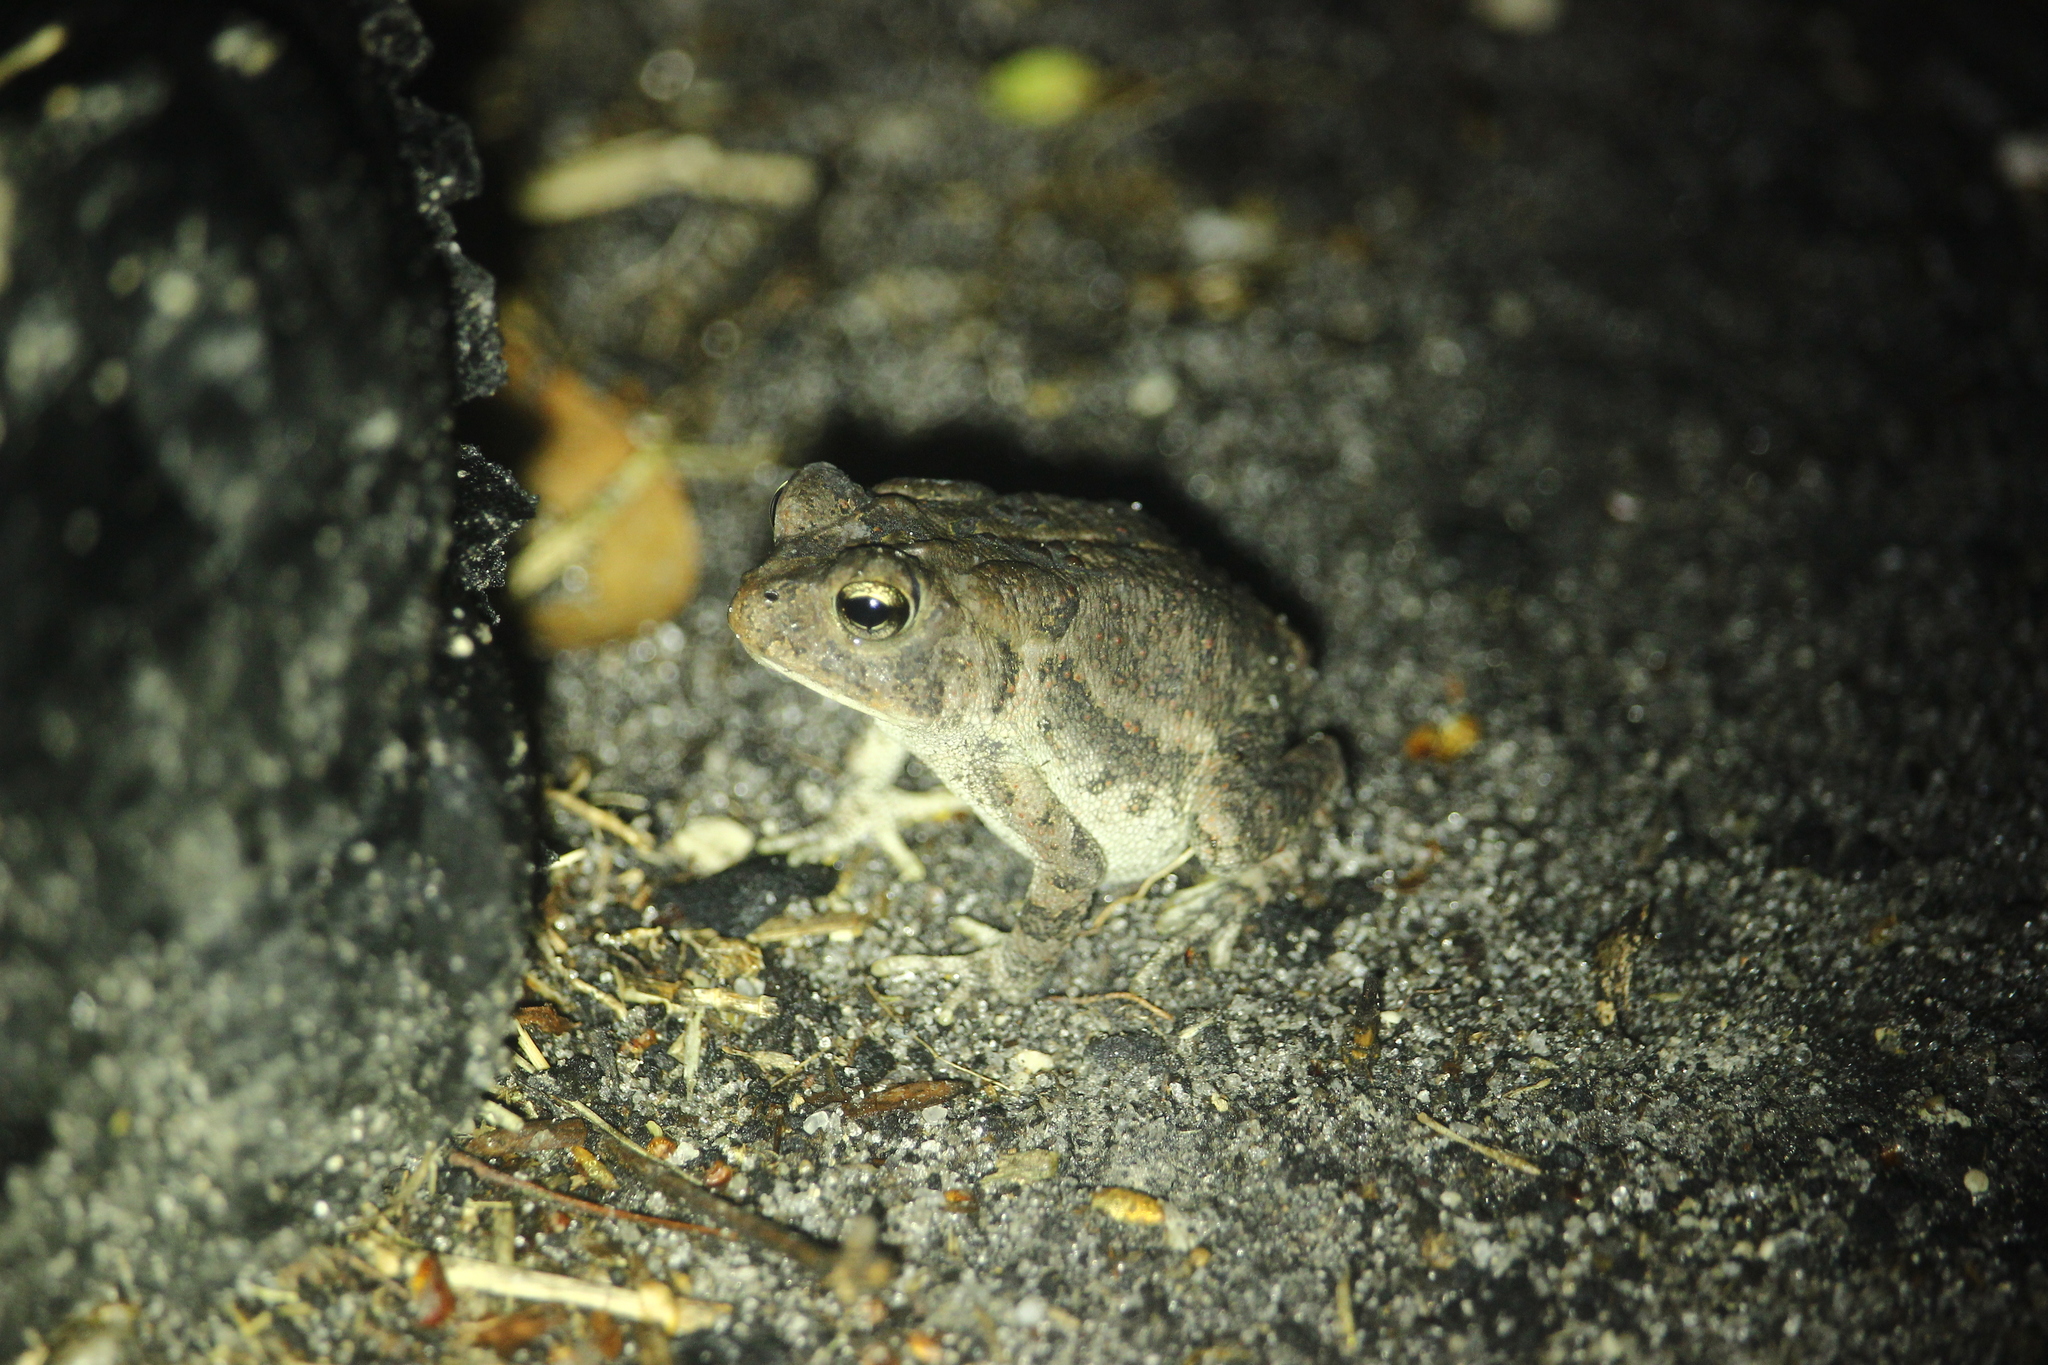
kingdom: Animalia
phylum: Chordata
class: Amphibia
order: Anura
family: Bufonidae
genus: Anaxyrus
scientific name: Anaxyrus terrestris
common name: Southern toad
